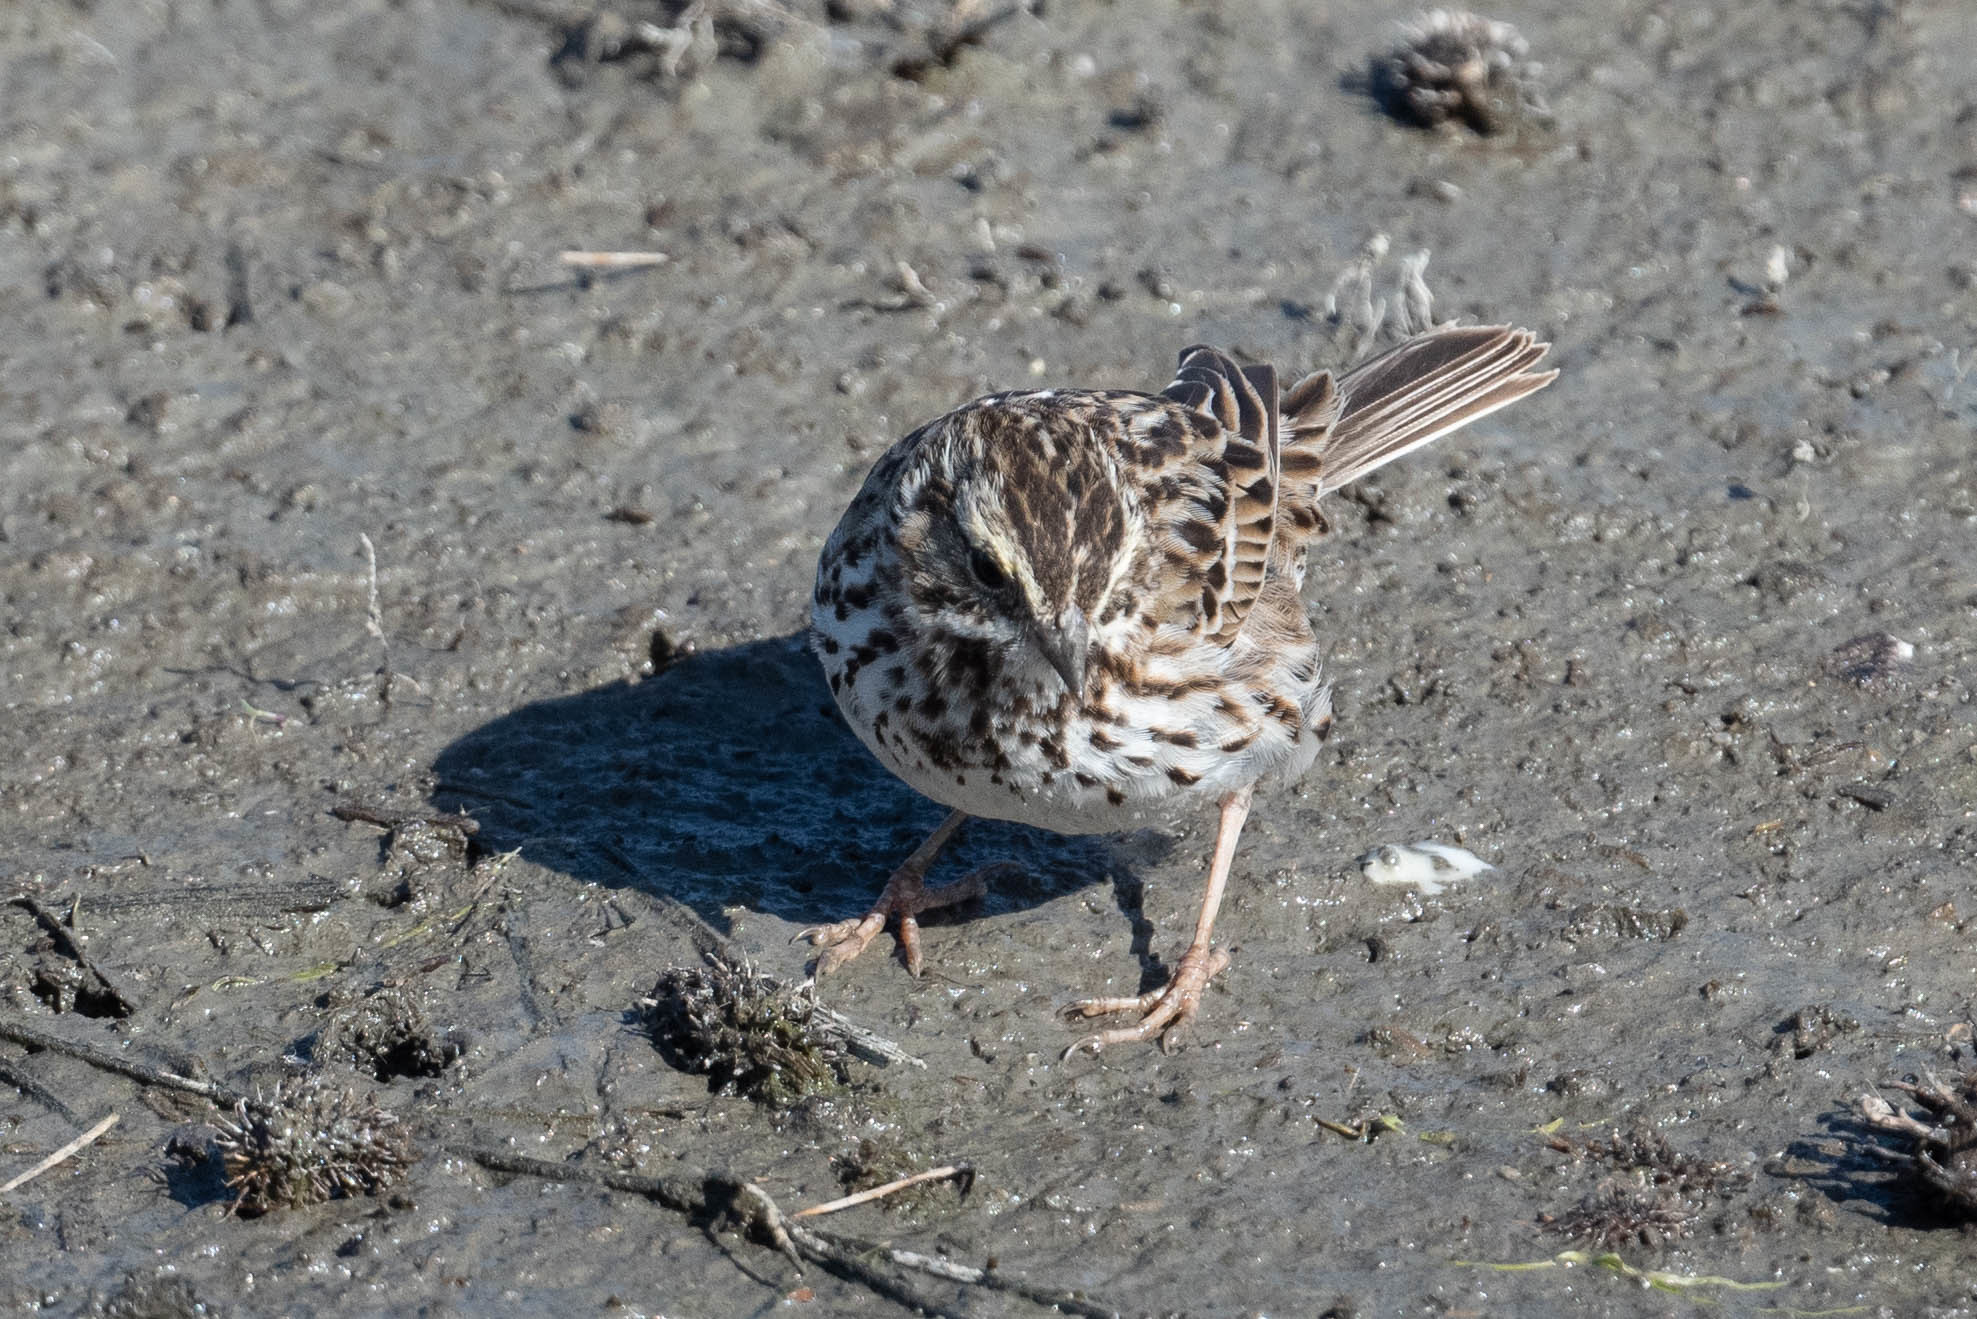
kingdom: Animalia
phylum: Chordata
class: Aves
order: Passeriformes
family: Passerellidae
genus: Passerculus
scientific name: Passerculus sandwichensis
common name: Savannah sparrow
